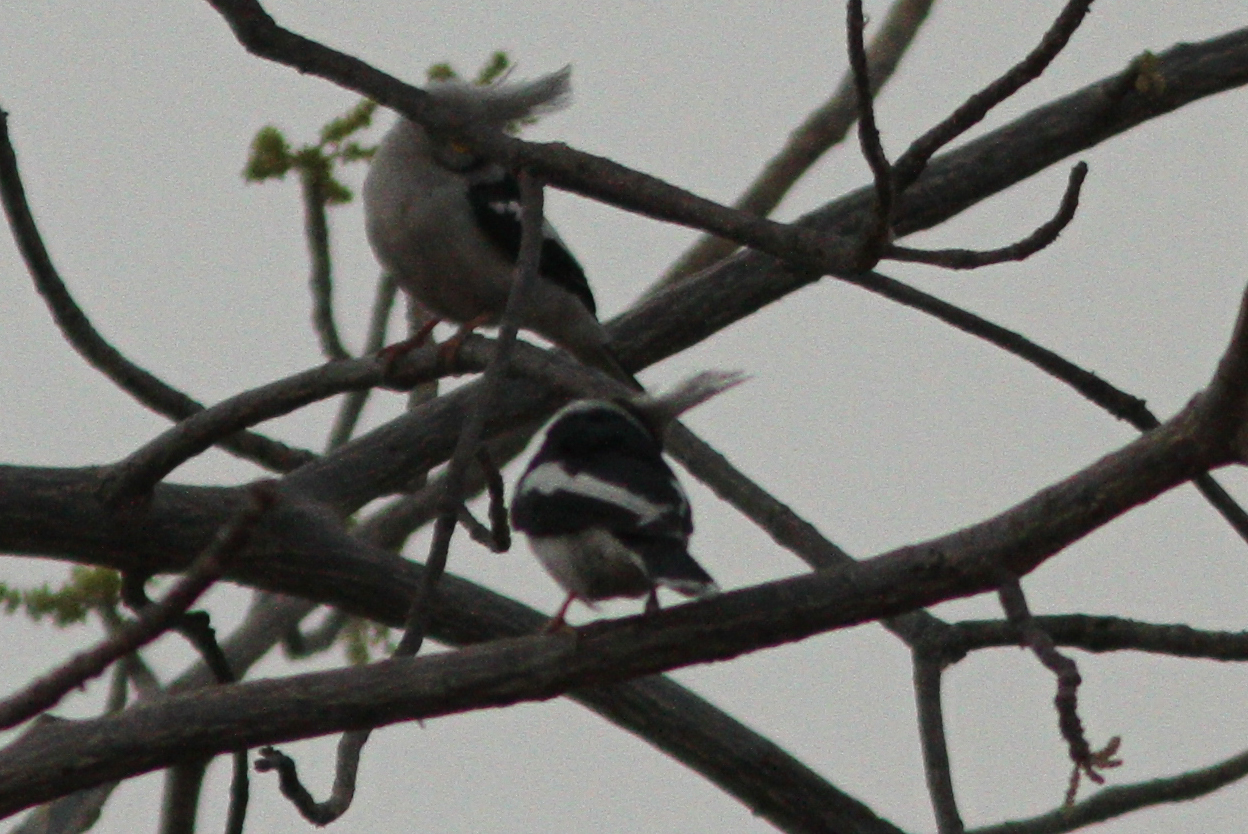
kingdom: Animalia
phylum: Chordata
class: Aves
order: Passeriformes
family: Prionopidae
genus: Prionops
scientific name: Prionops plumatus
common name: White-crested helmetshrike
